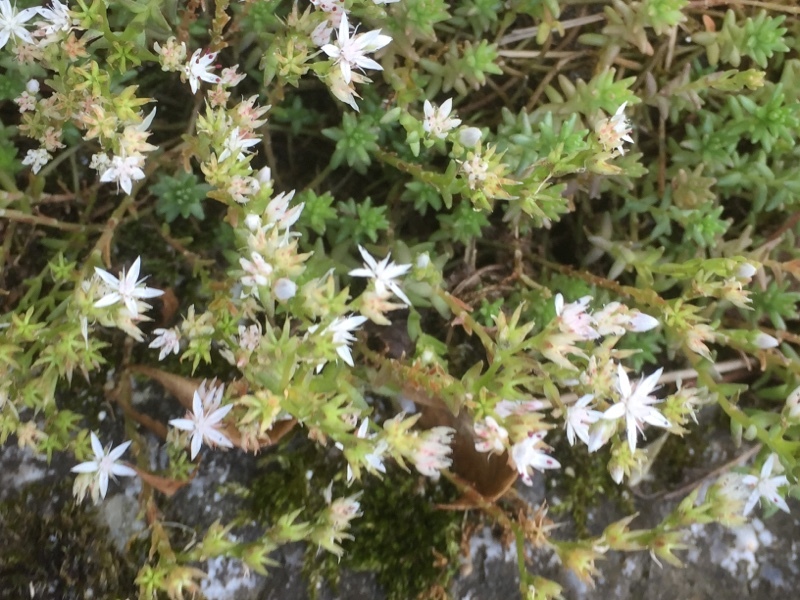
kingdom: Plantae
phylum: Tracheophyta
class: Magnoliopsida
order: Saxifragales
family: Crassulaceae
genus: Sedum
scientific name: Sedum anglicum
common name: English stonecrop
